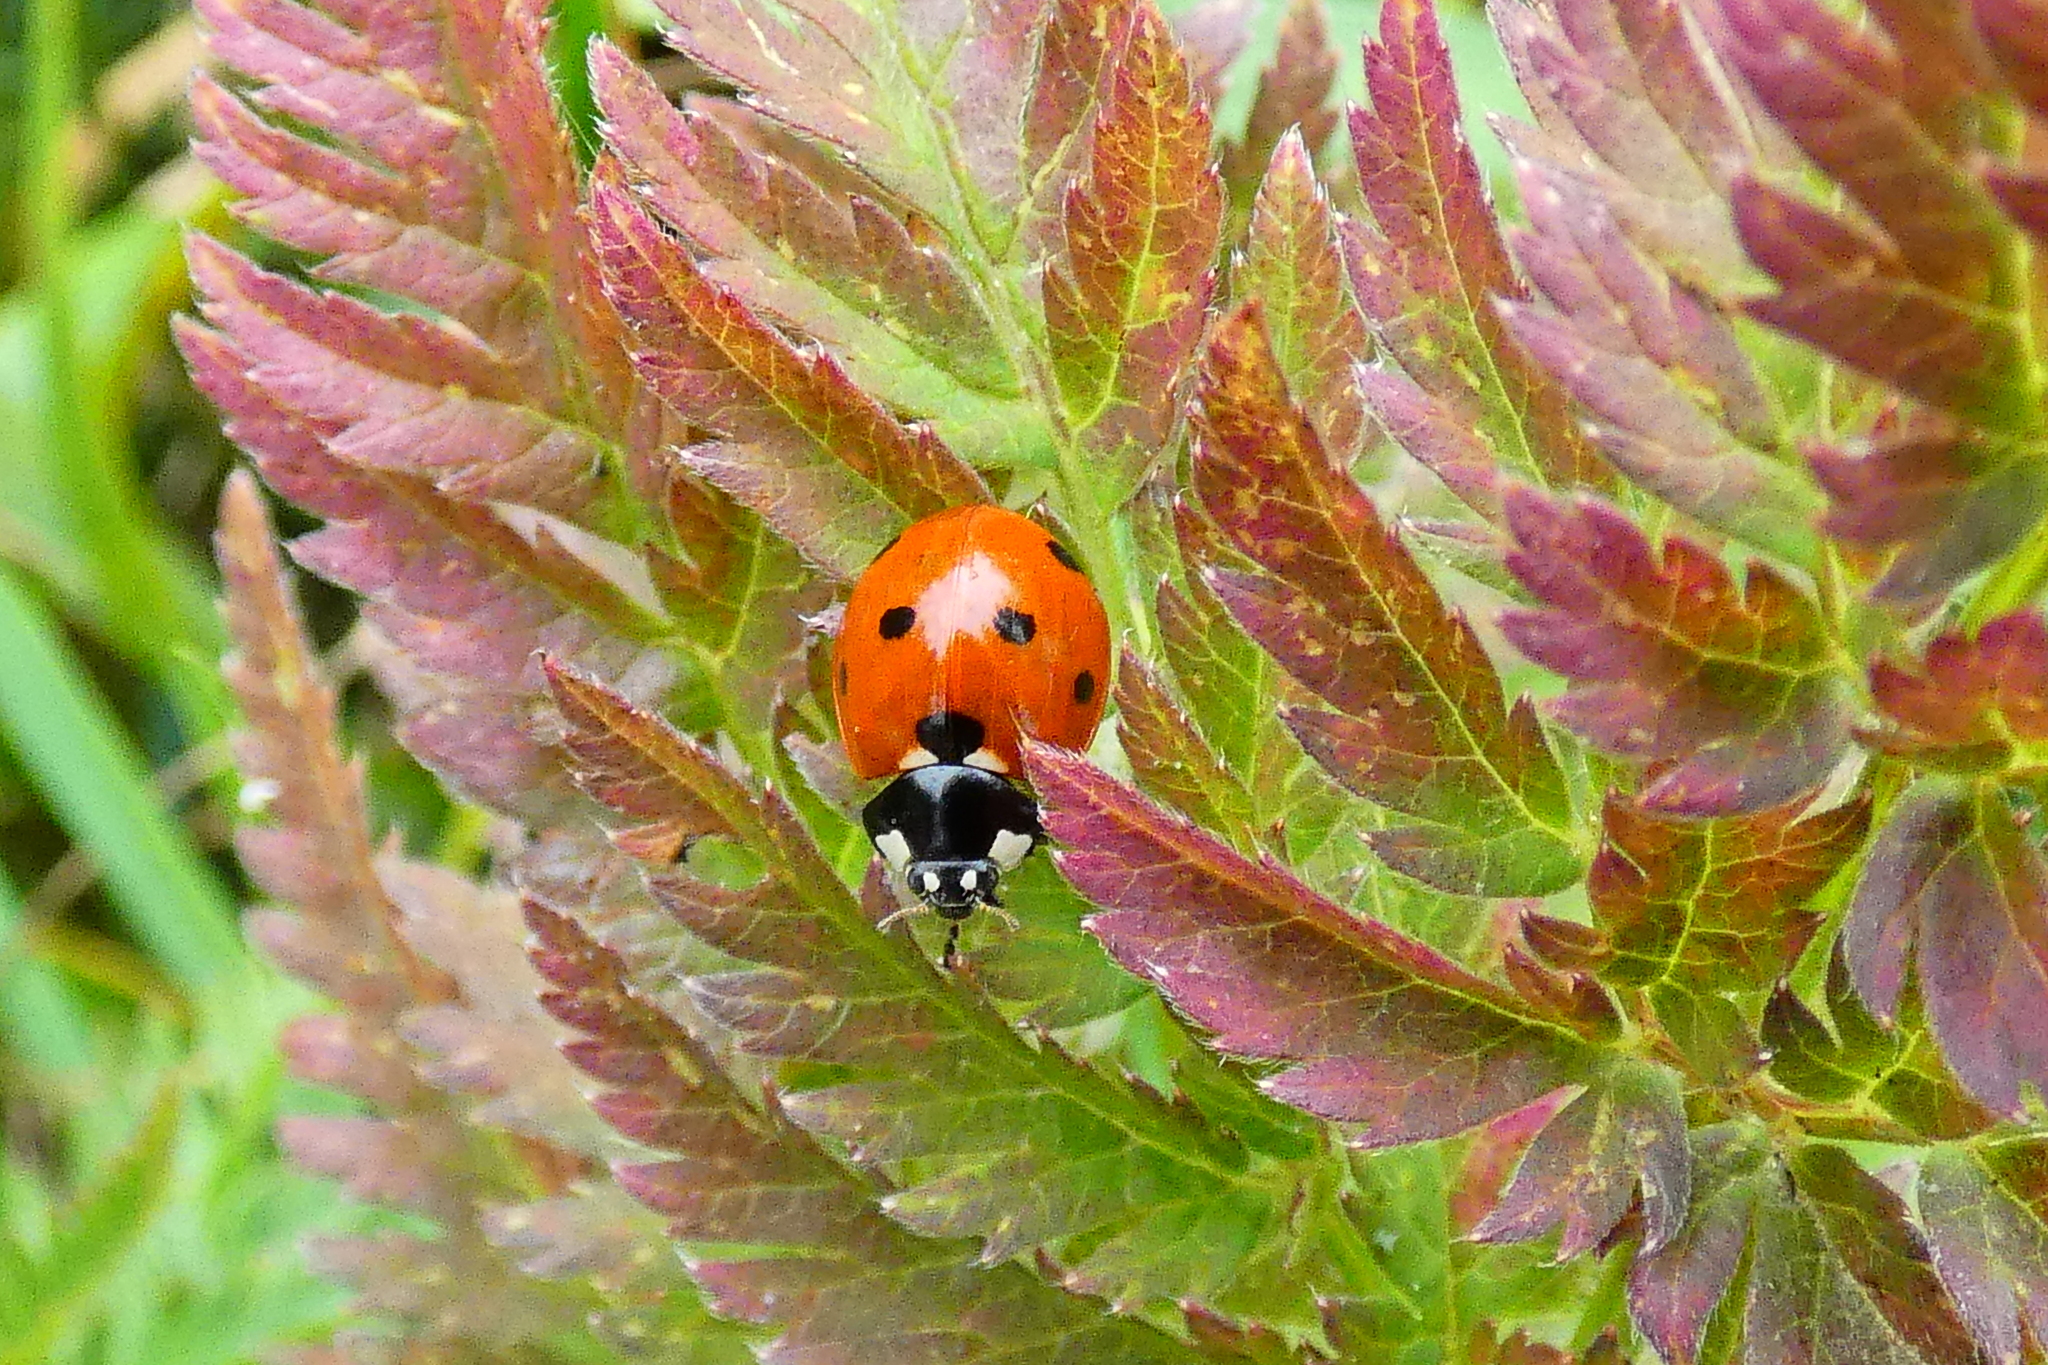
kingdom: Animalia
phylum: Arthropoda
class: Insecta
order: Coleoptera
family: Coccinellidae
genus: Coccinella
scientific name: Coccinella septempunctata
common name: Sevenspotted lady beetle
